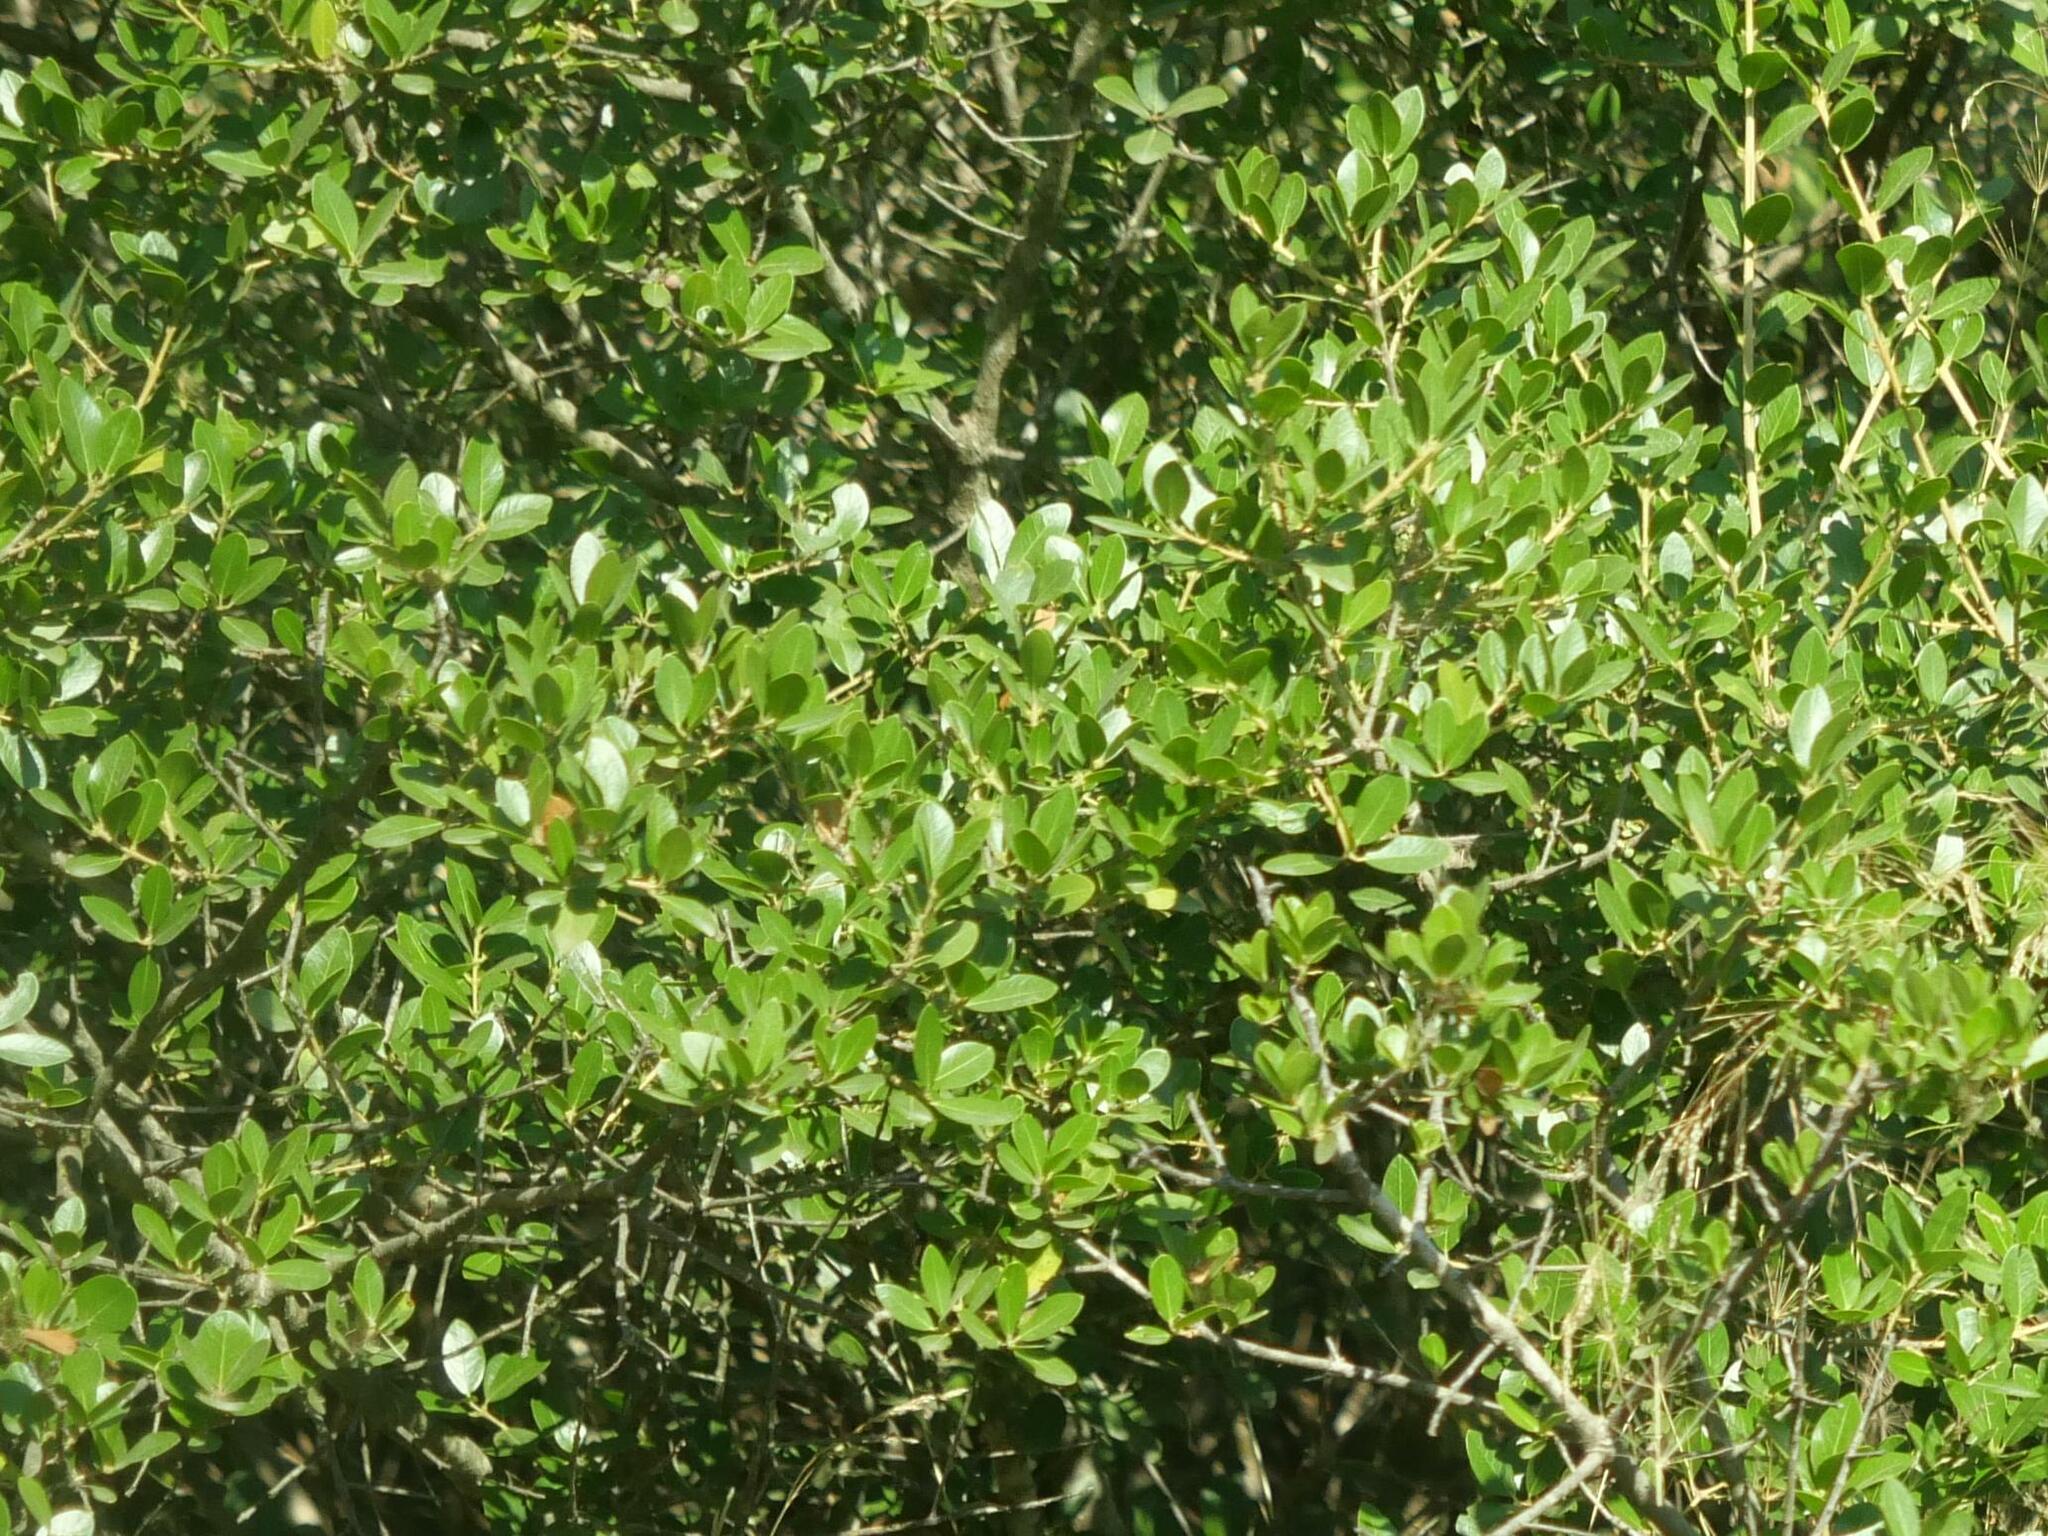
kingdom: Plantae
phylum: Tracheophyta
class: Magnoliopsida
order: Sapindales
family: Anacardiaceae
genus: Pistacia
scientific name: Pistacia lentiscus
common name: Lentisk
